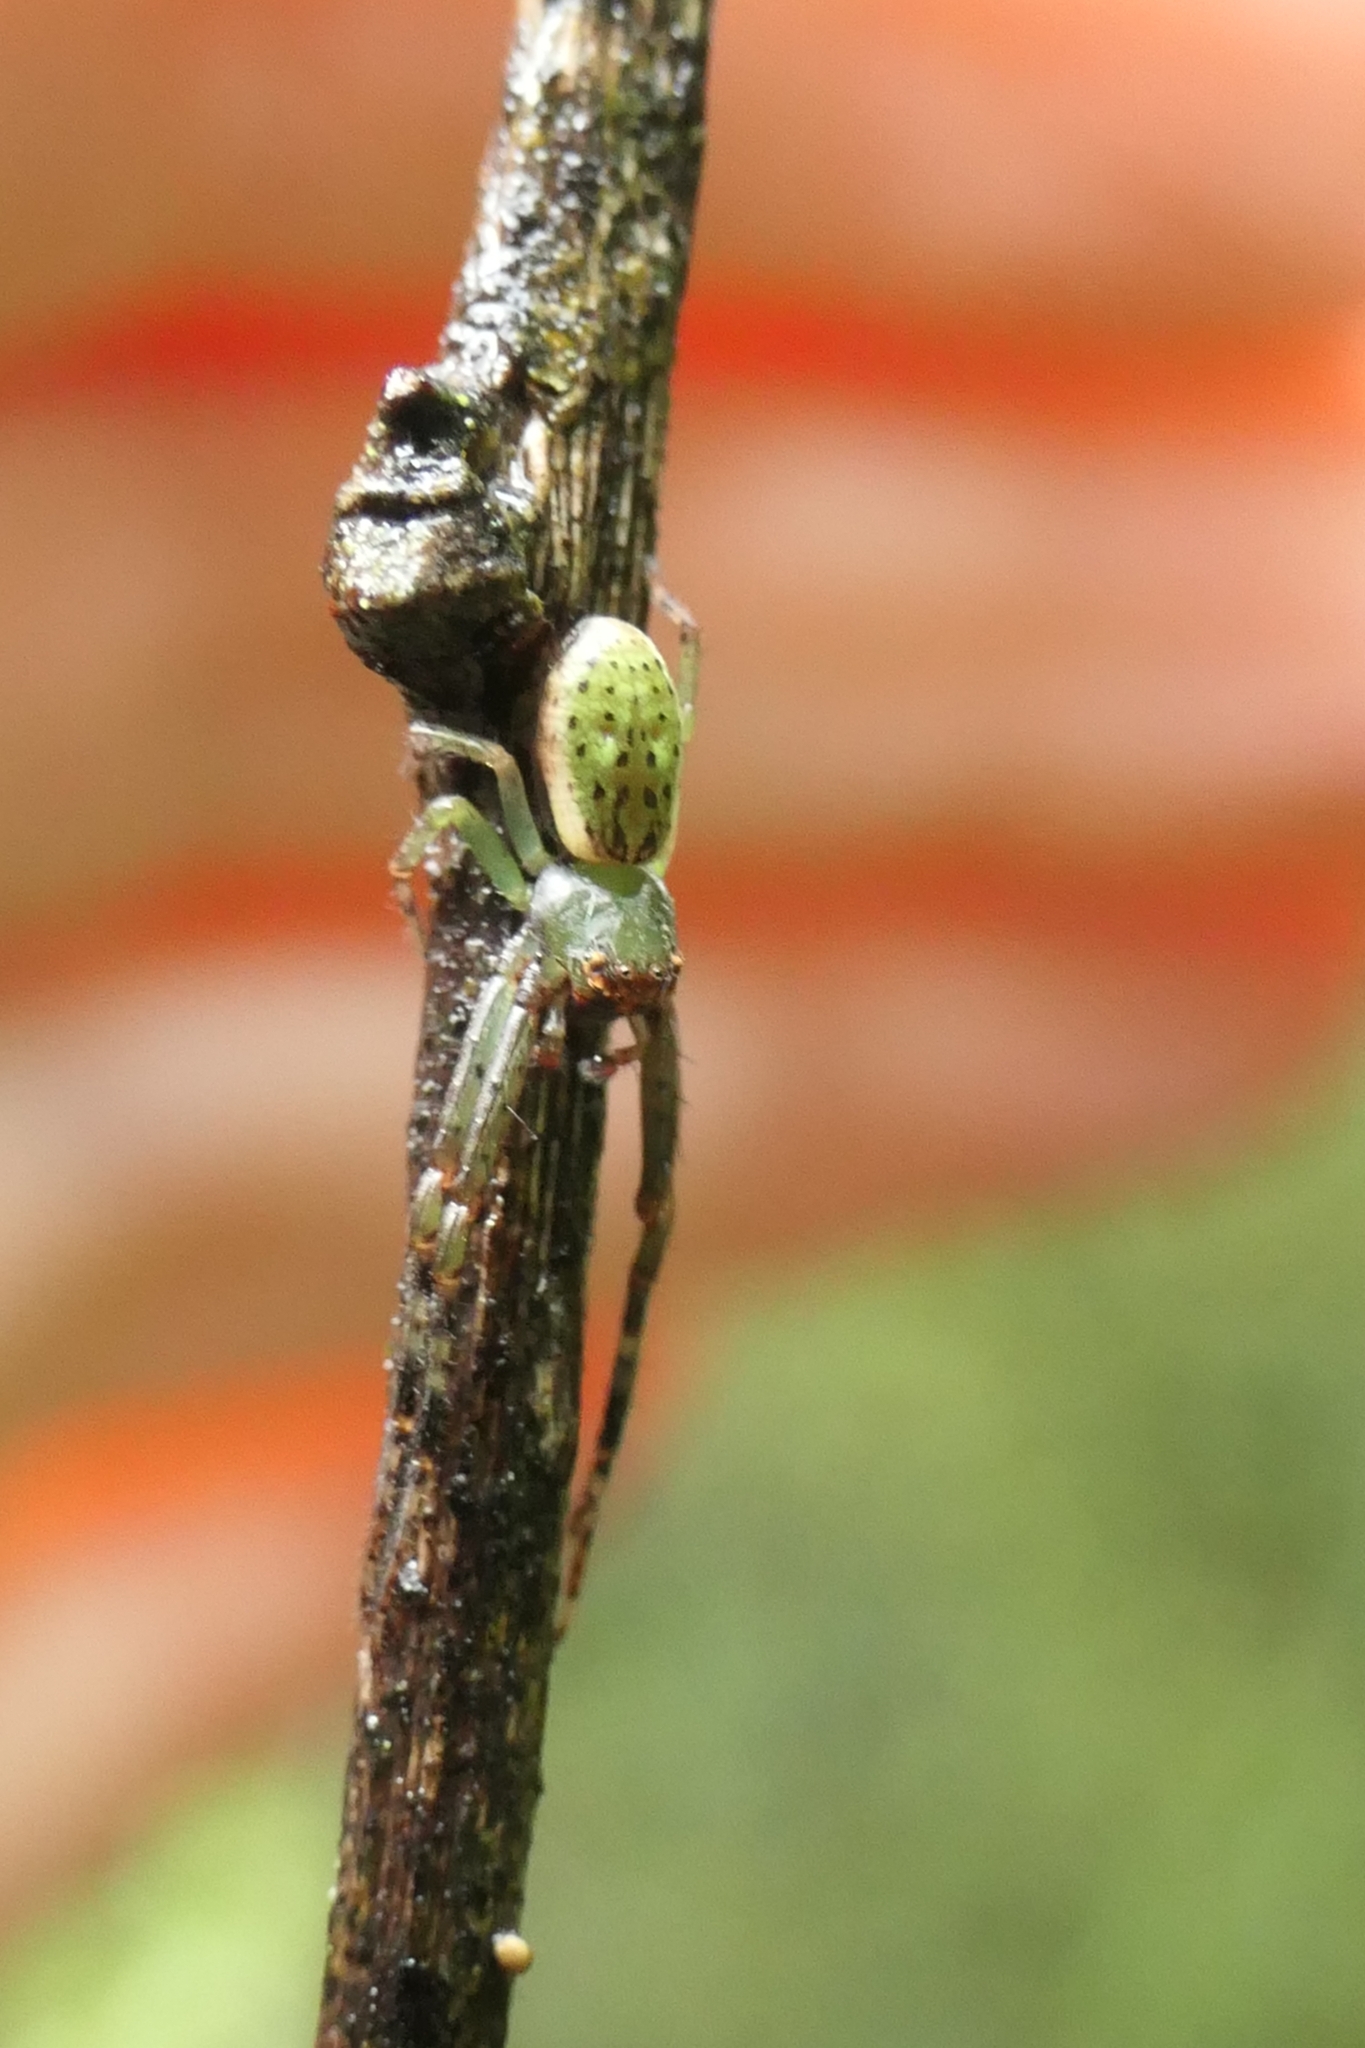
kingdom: Animalia
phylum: Arthropoda
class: Arachnida
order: Araneae
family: Thomisidae
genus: Diaea
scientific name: Diaea ambara
